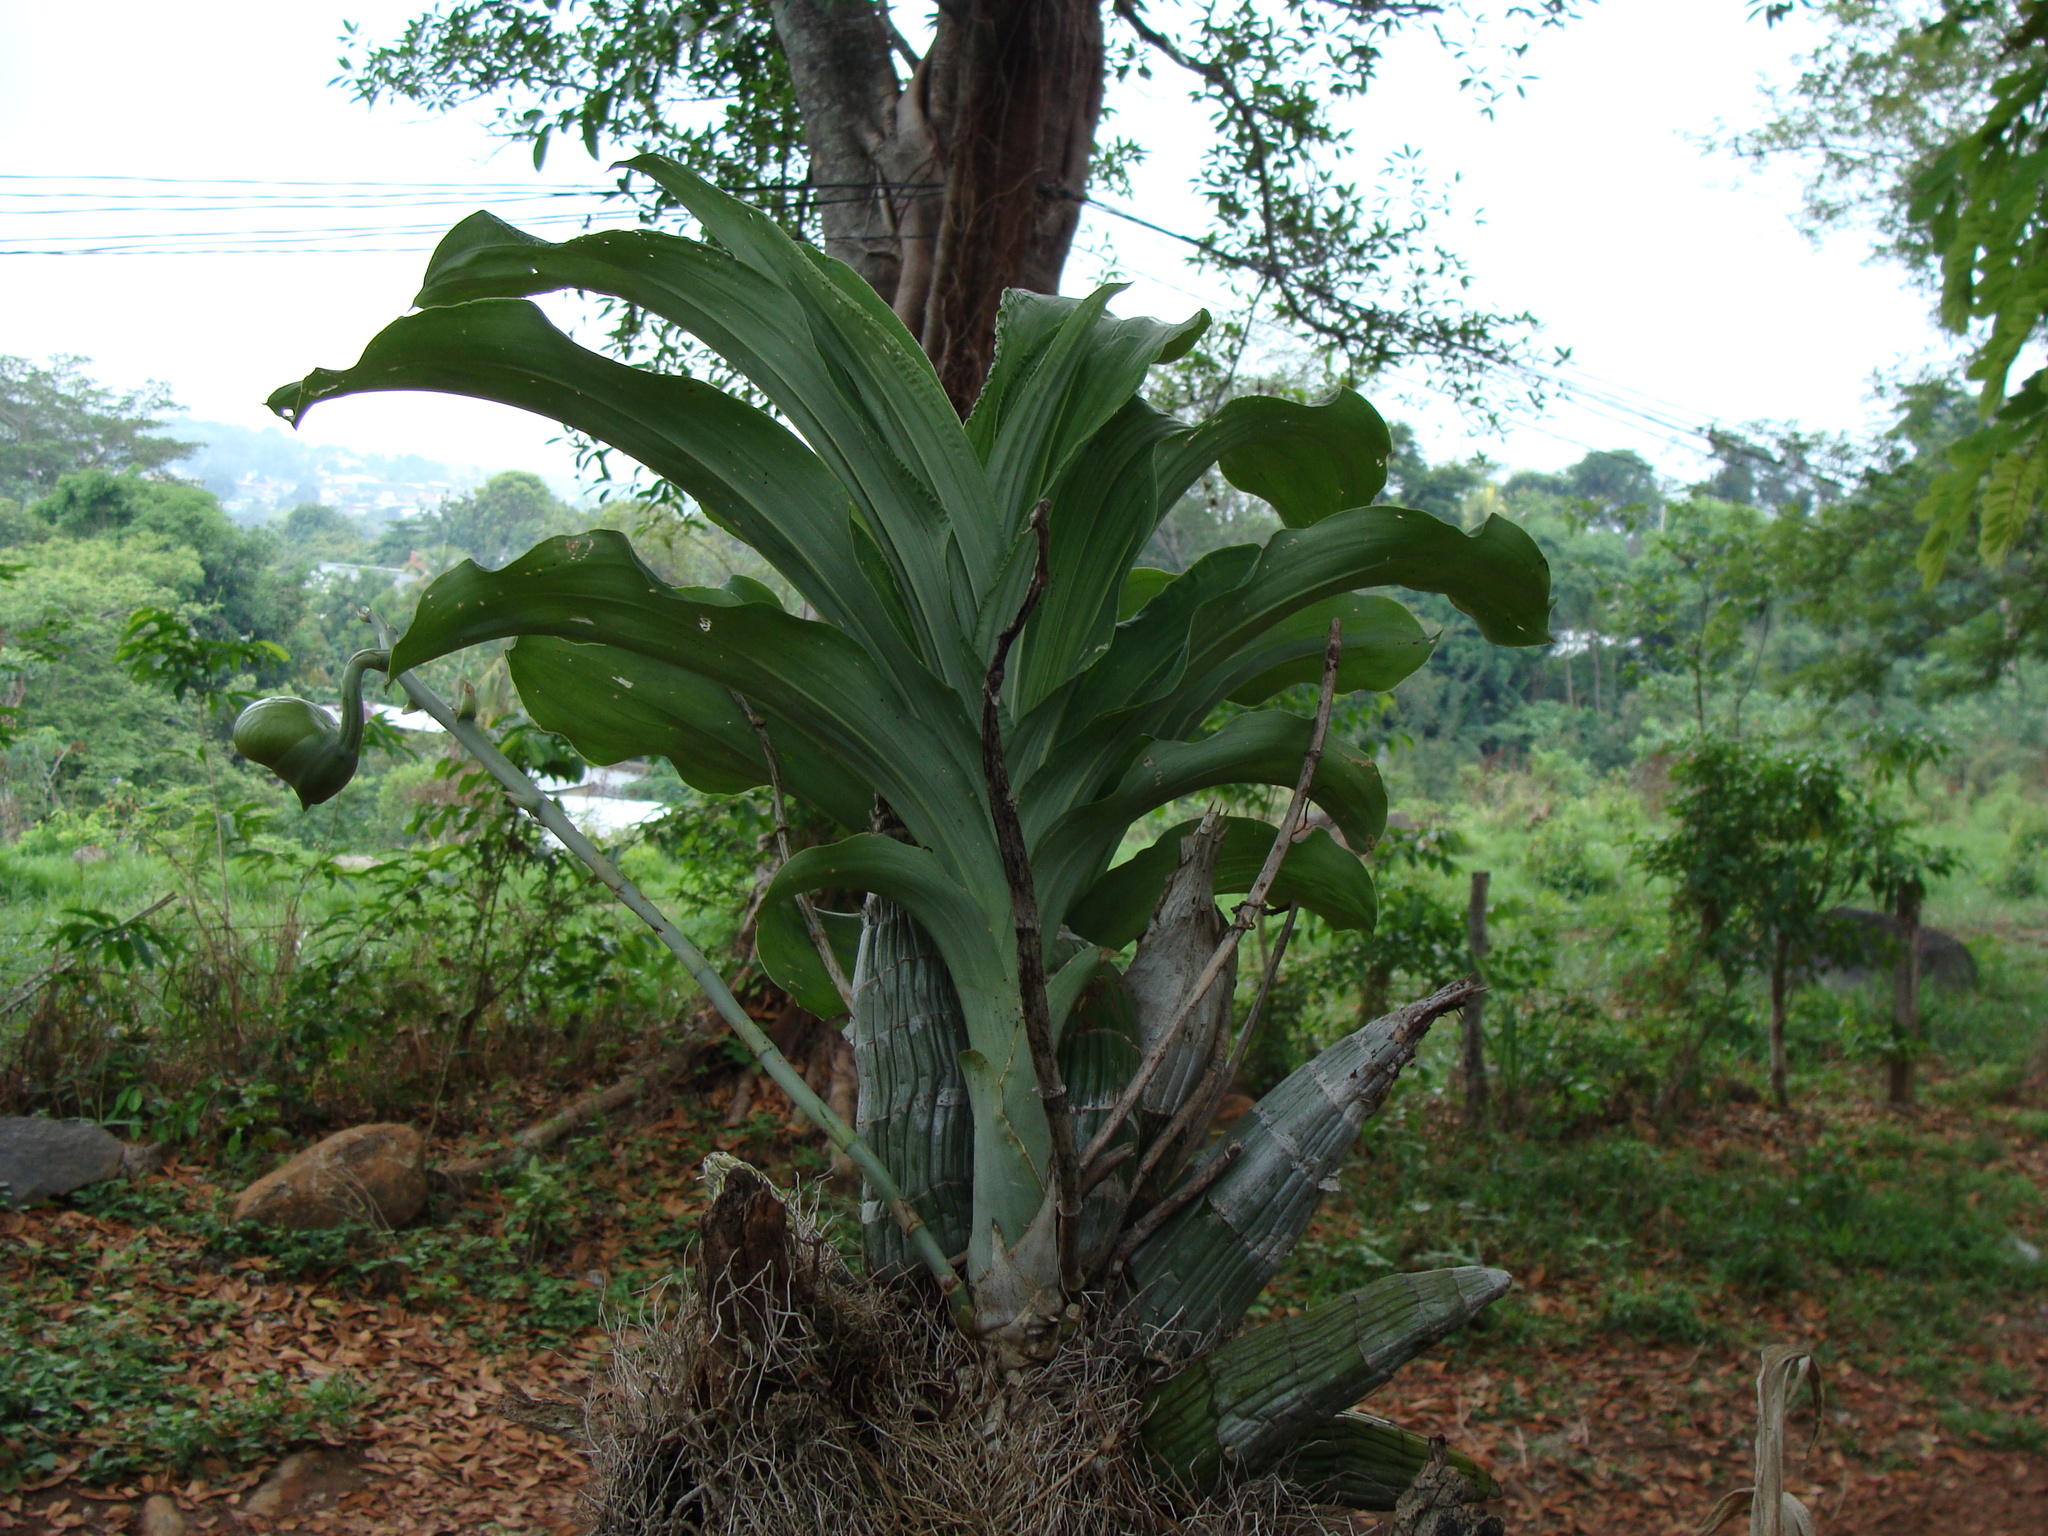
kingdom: Plantae
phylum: Tracheophyta
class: Liliopsida
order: Asparagales
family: Orchidaceae
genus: Catasetum
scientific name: Catasetum integerrimum
